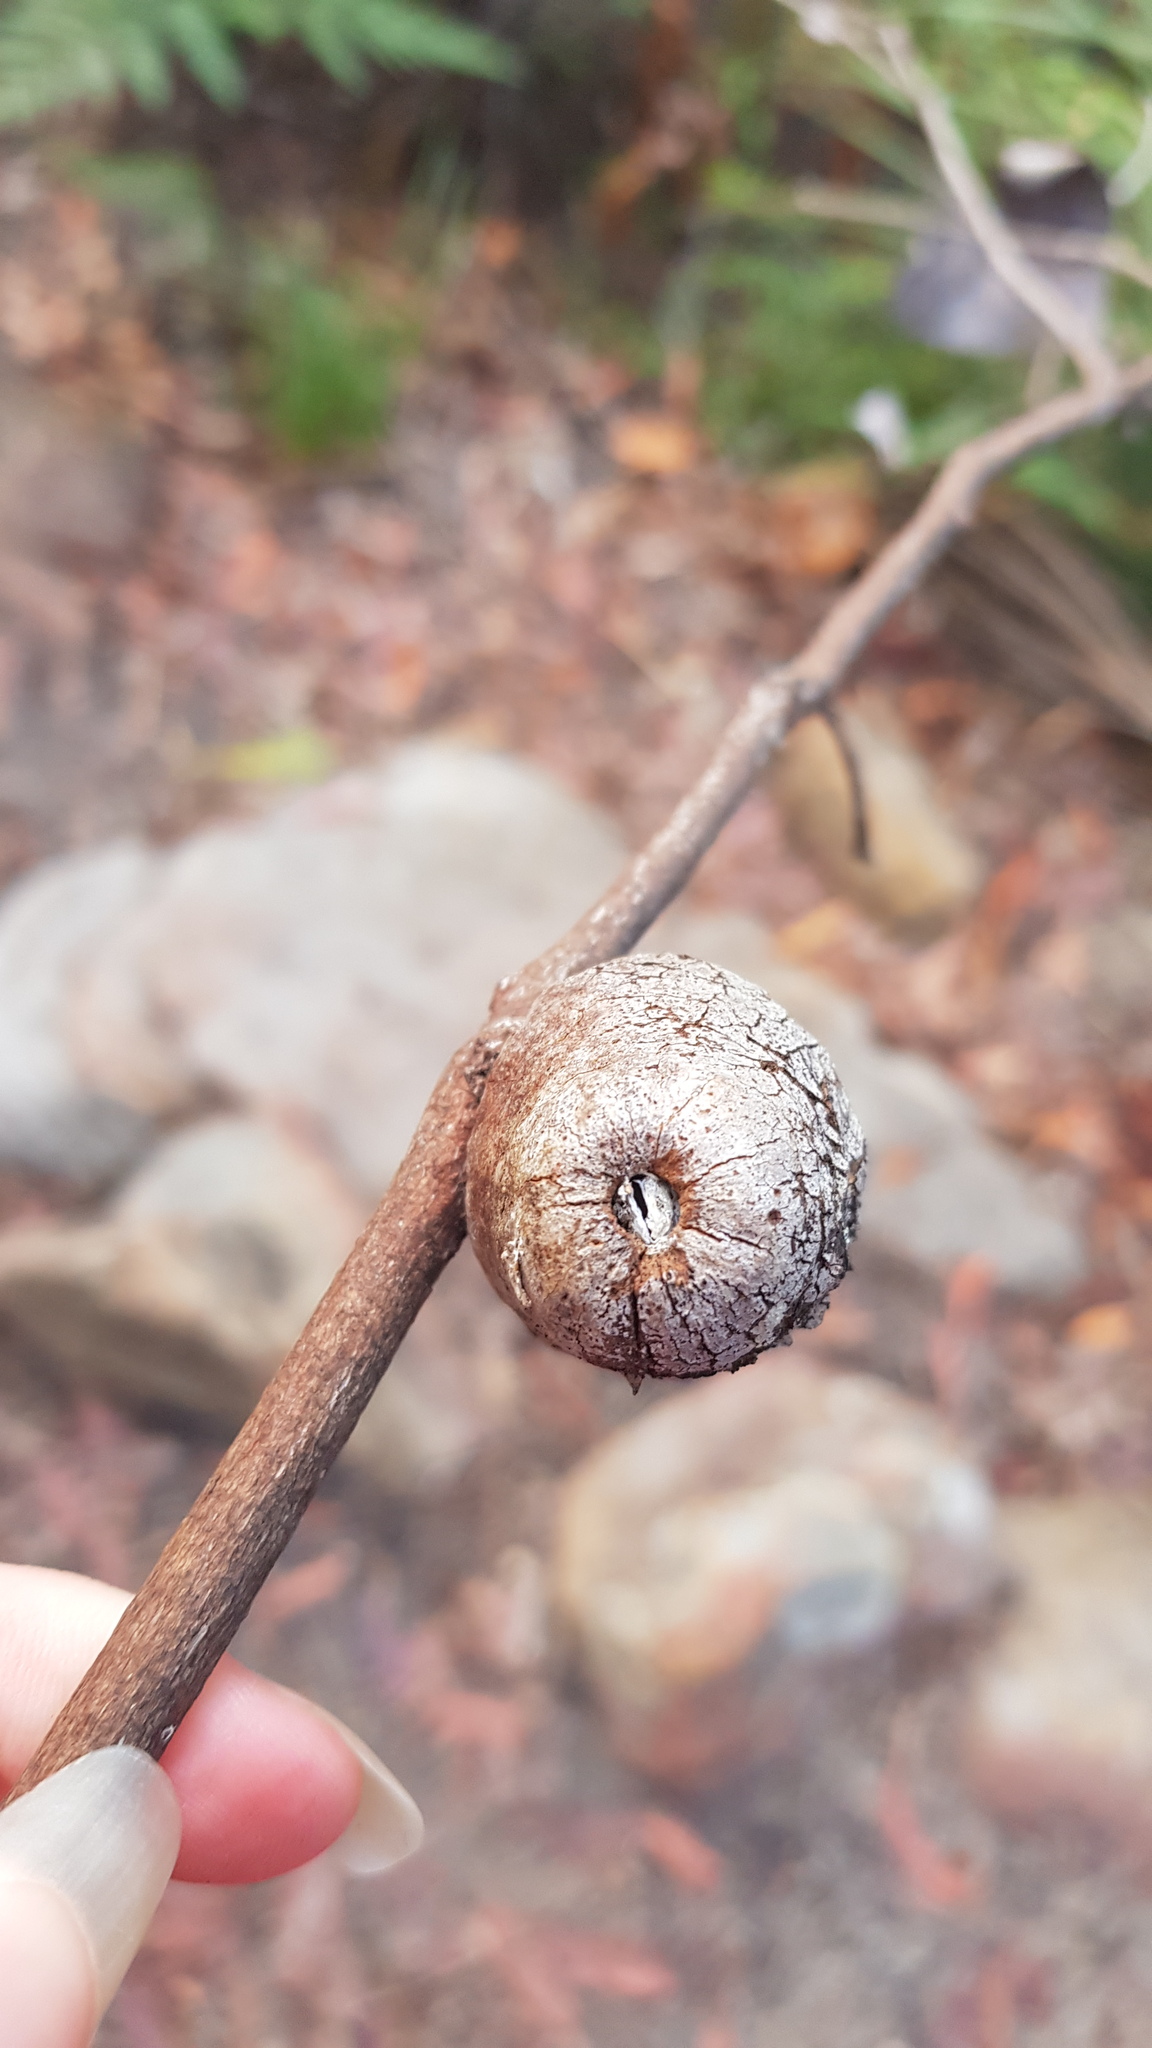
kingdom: Animalia
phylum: Arthropoda
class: Insecta
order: Hemiptera
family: Eriococcidae
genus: Apiomorpha
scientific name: Apiomorpha variabilis
